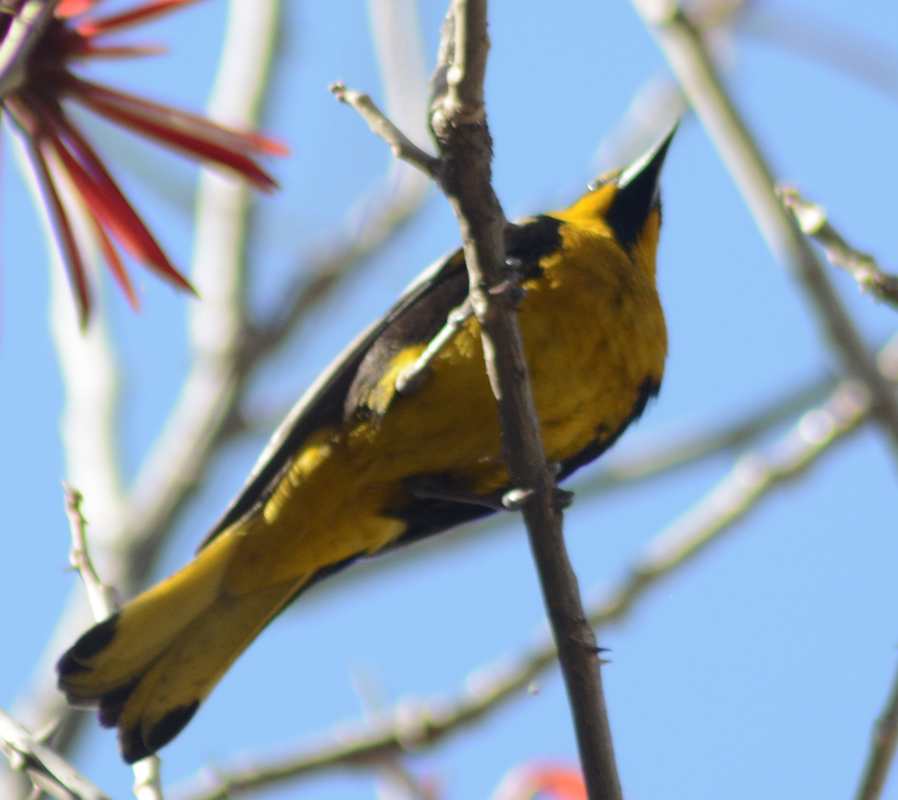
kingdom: Animalia
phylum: Chordata
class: Aves
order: Passeriformes
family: Icteridae
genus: Icterus
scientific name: Icterus abeillei
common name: Black-backed oriole
